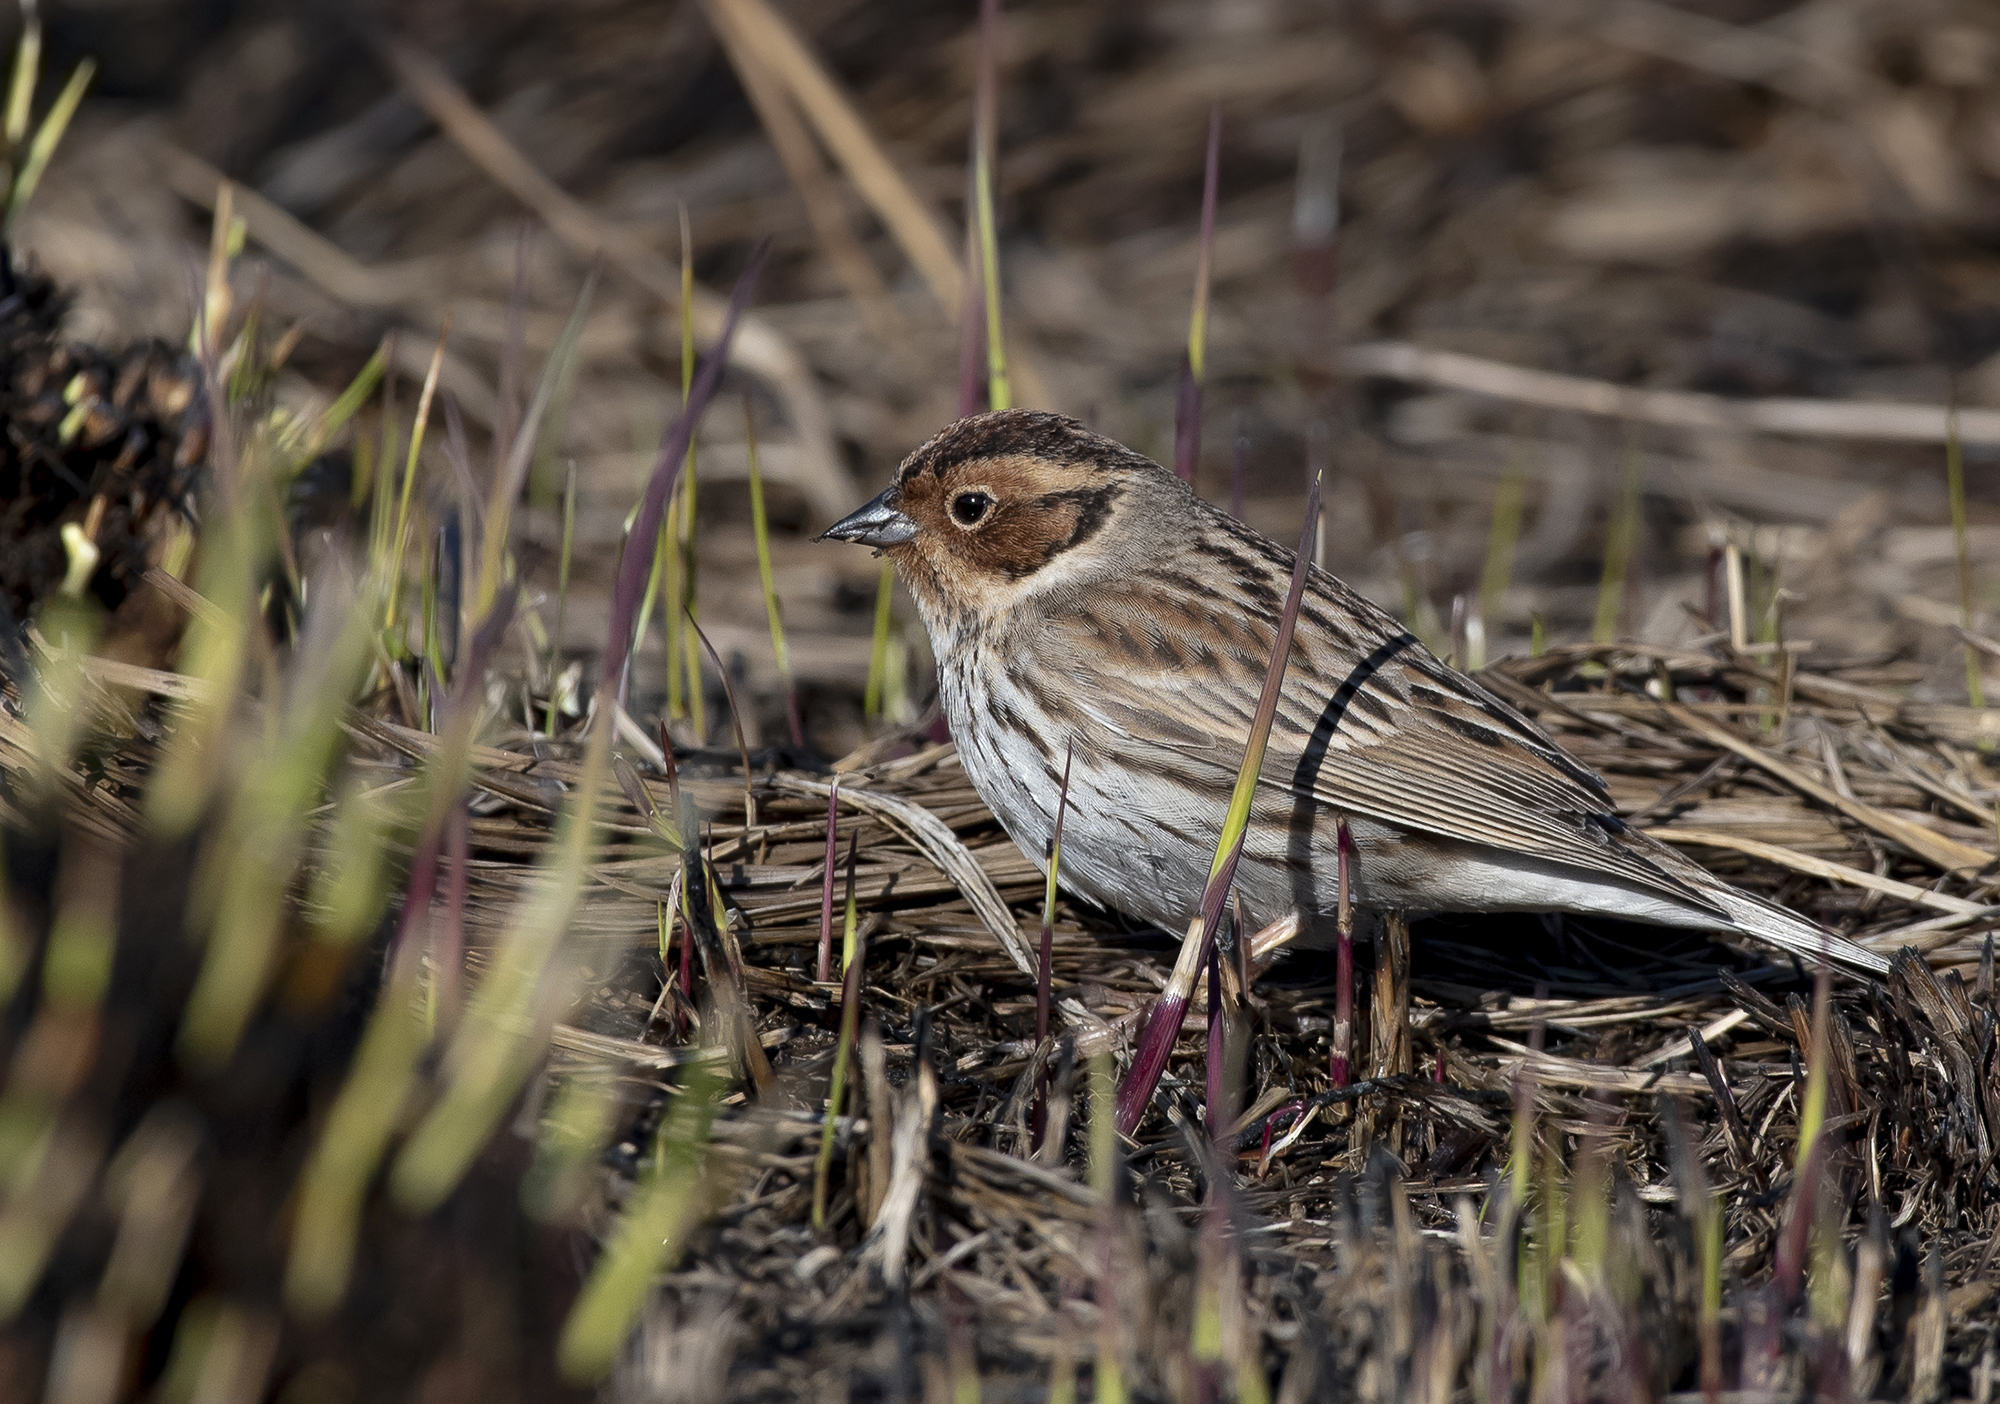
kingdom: Animalia
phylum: Chordata
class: Aves
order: Passeriformes
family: Emberizidae
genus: Emberiza
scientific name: Emberiza pusilla
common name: Little bunting
